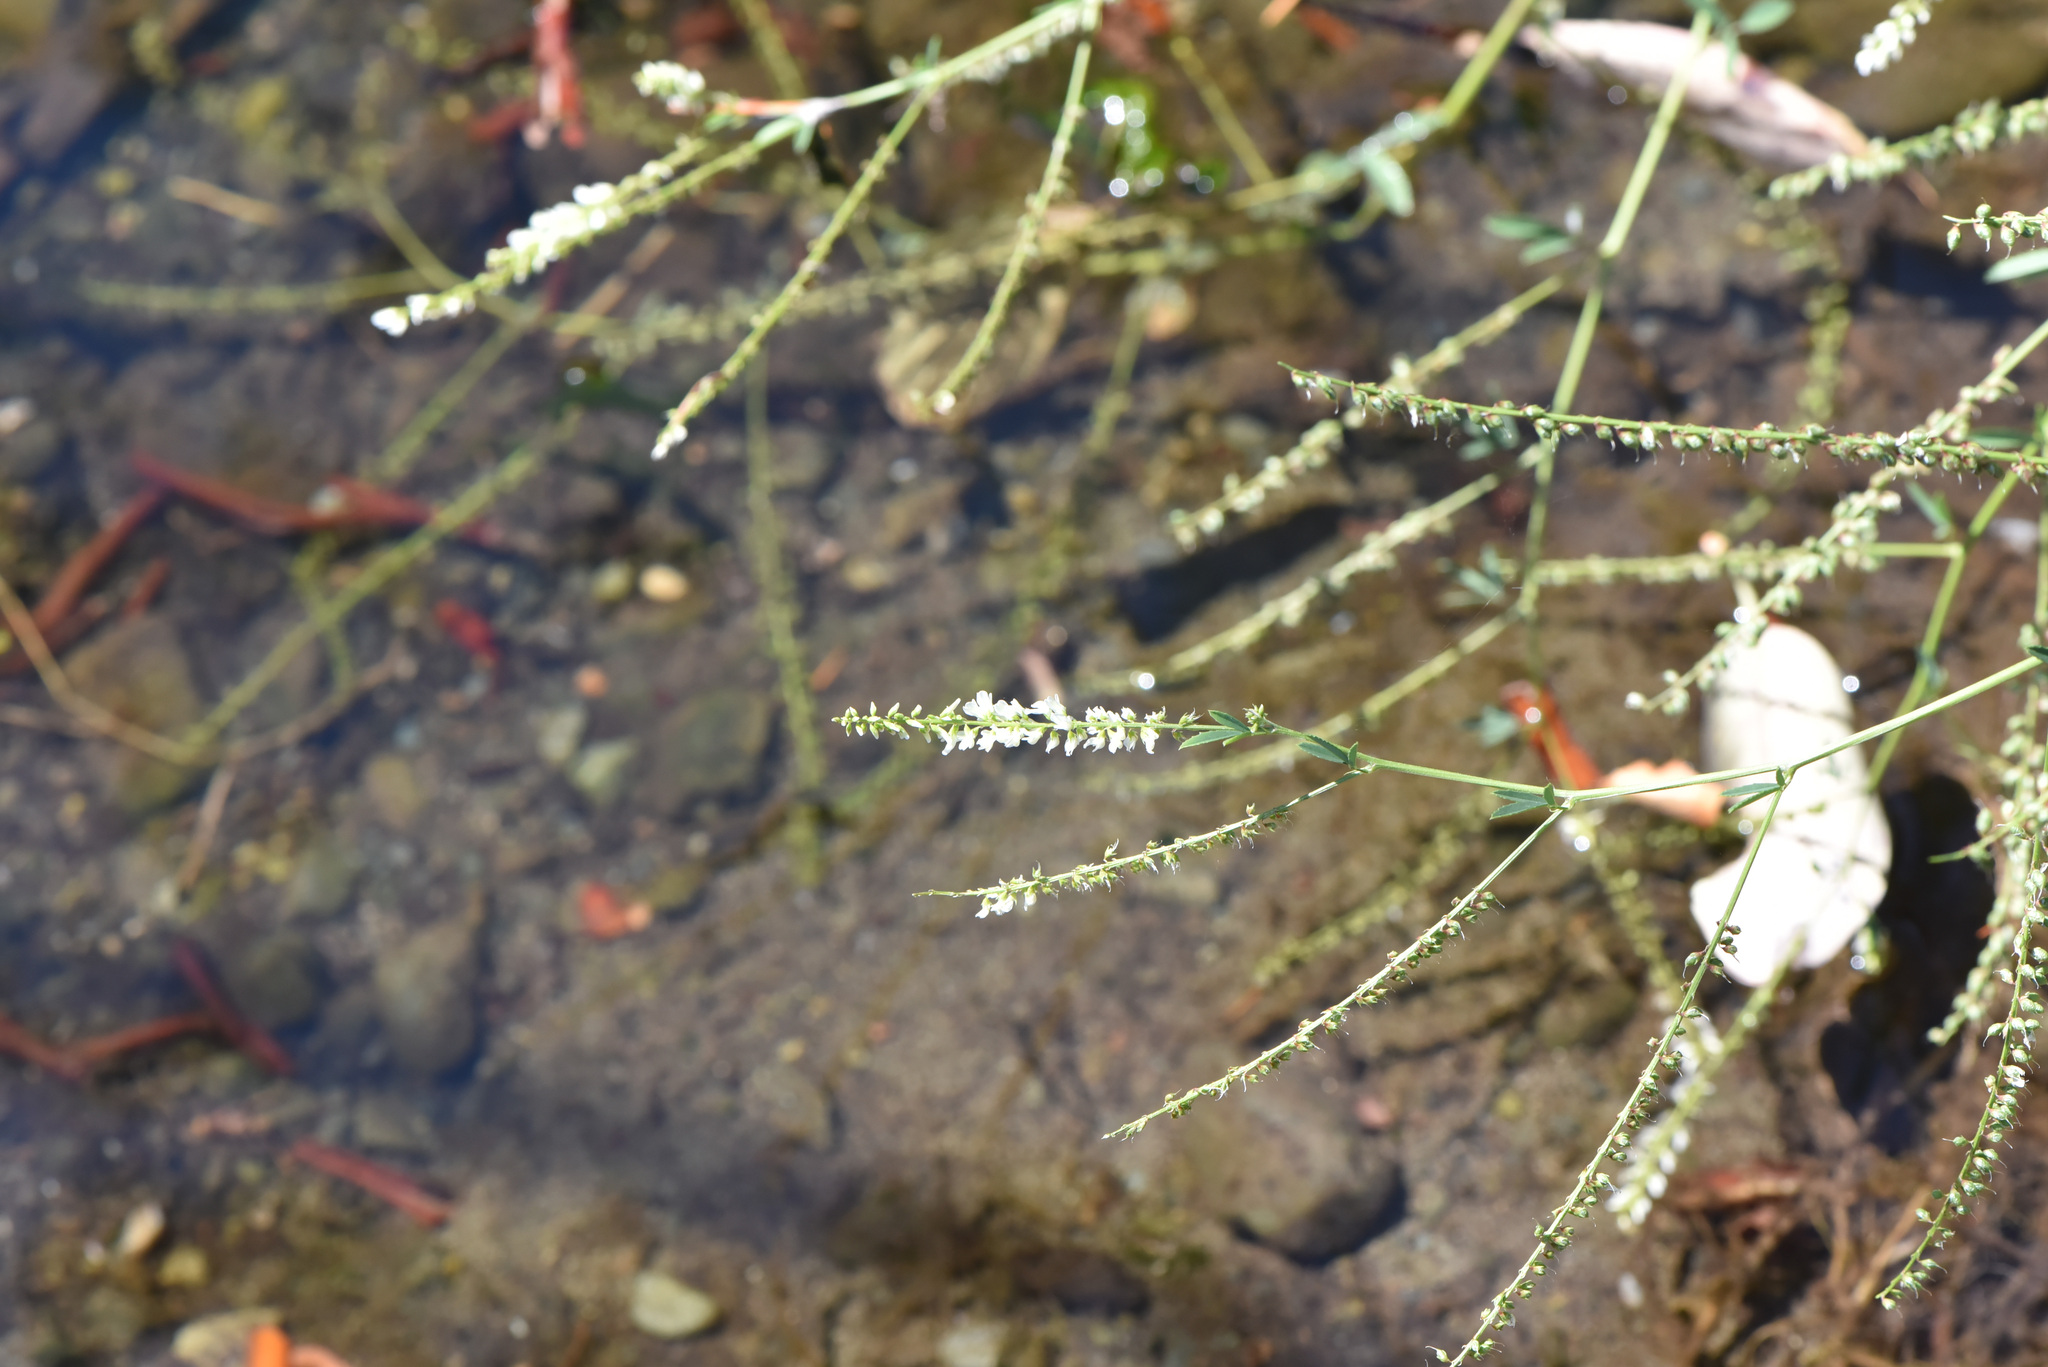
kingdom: Plantae
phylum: Tracheophyta
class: Magnoliopsida
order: Fabales
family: Fabaceae
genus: Melilotus
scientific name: Melilotus albus
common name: White melilot
